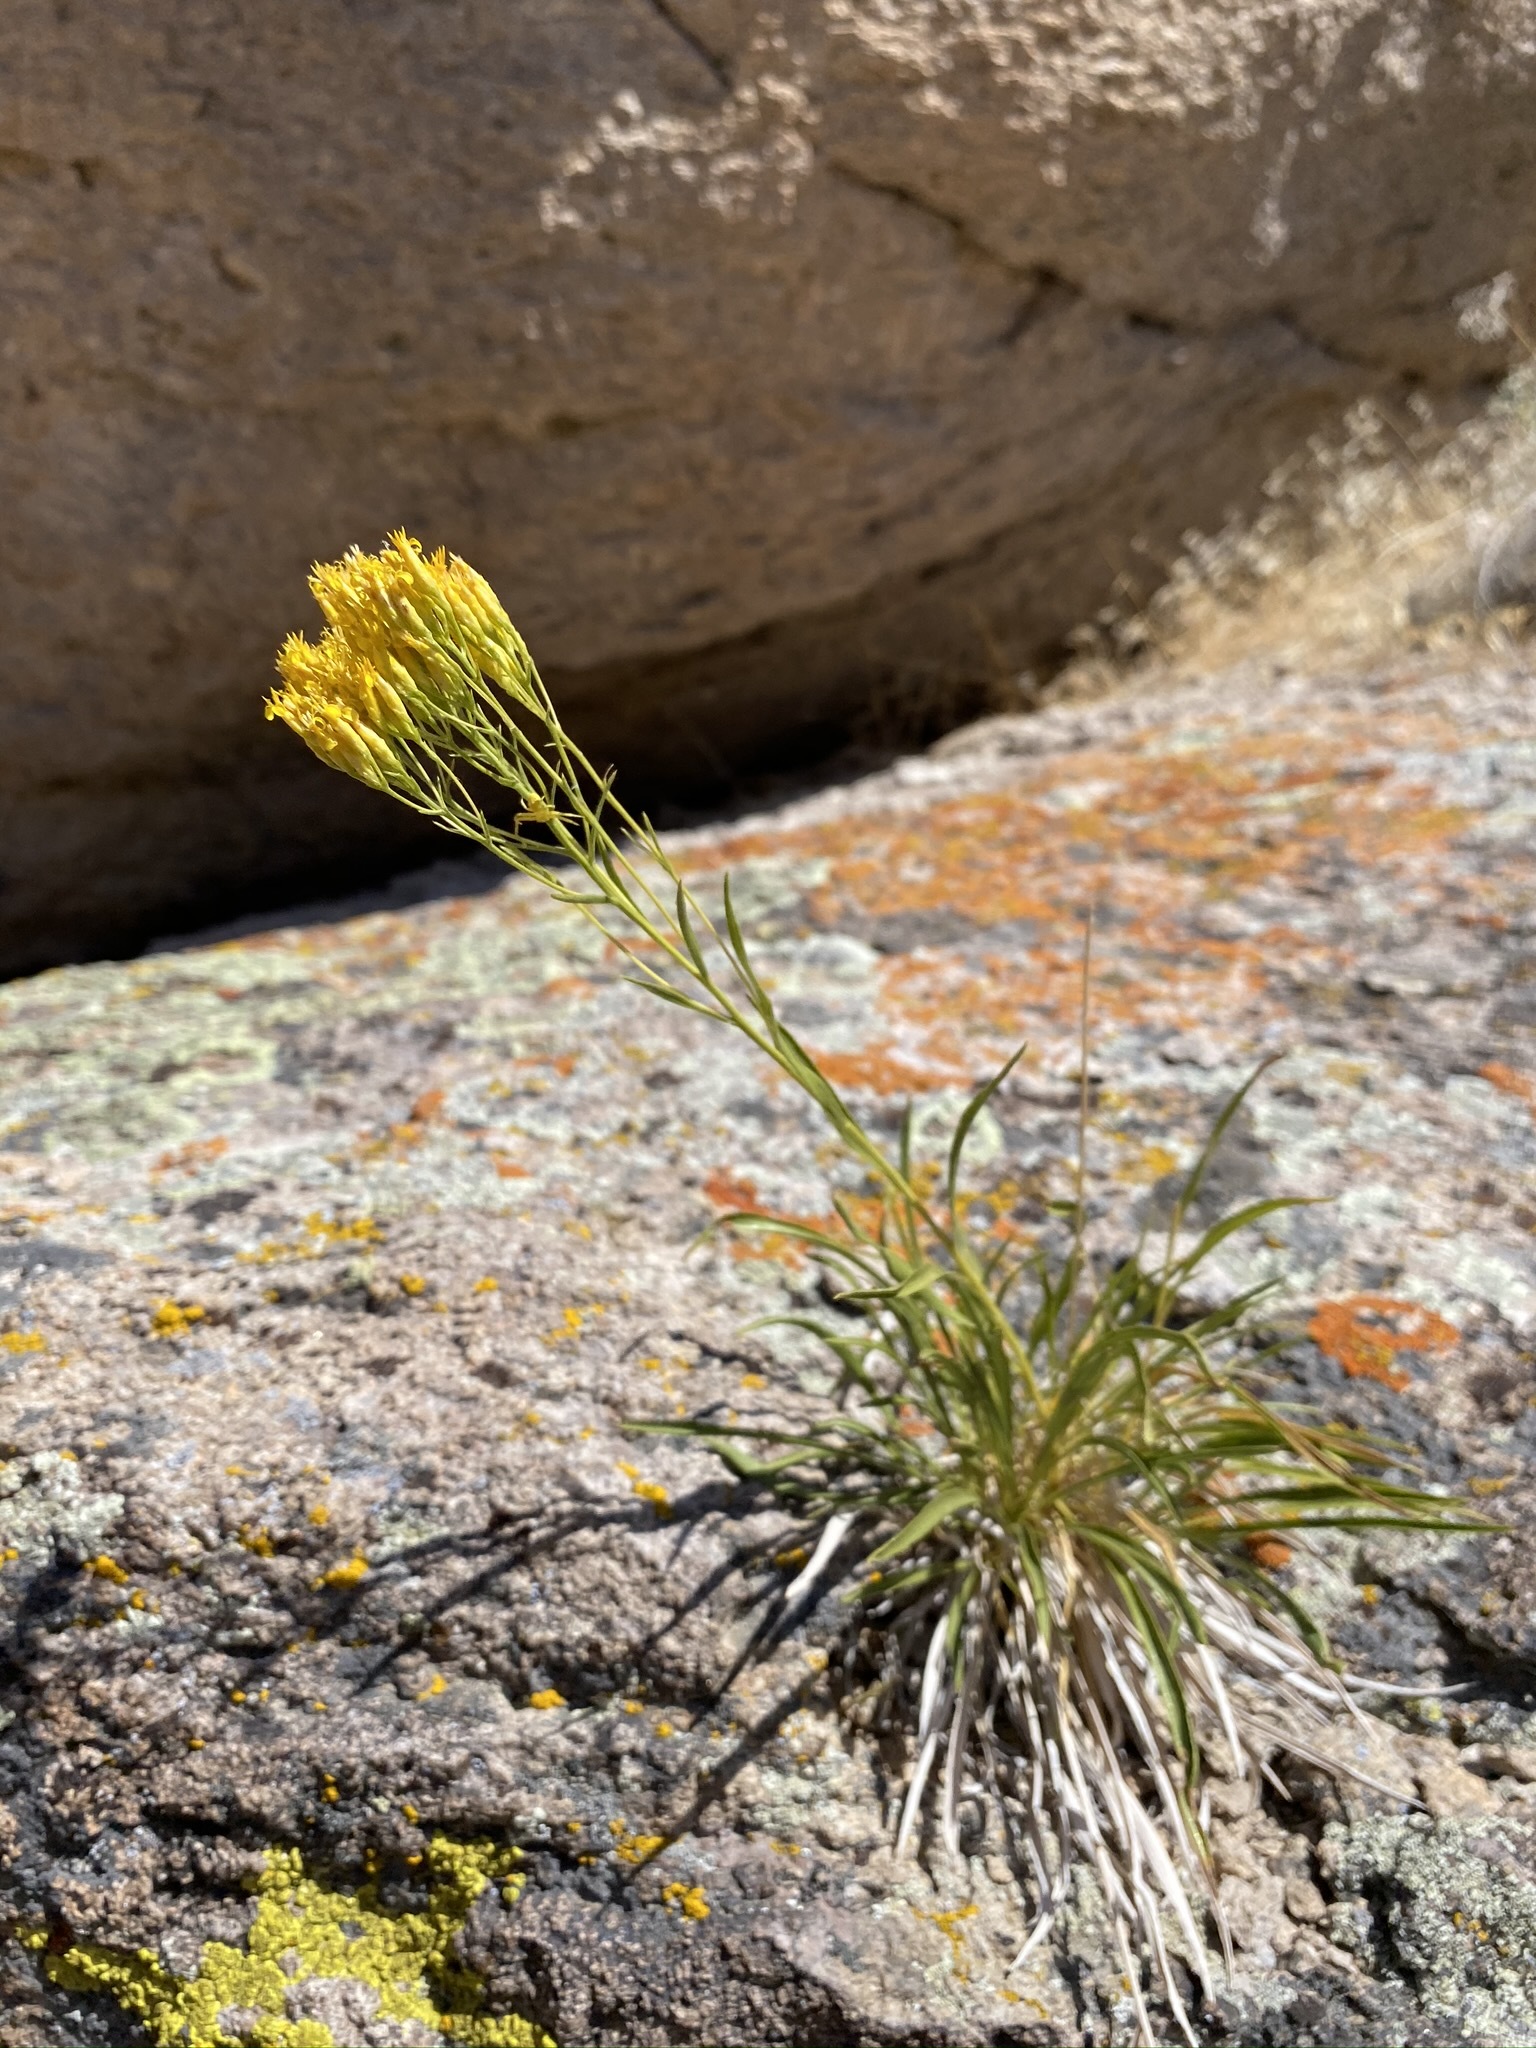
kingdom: Plantae
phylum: Tracheophyta
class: Magnoliopsida
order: Asterales
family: Asteraceae
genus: Petradoria
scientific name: Petradoria pumila
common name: Rock-goldenrod
